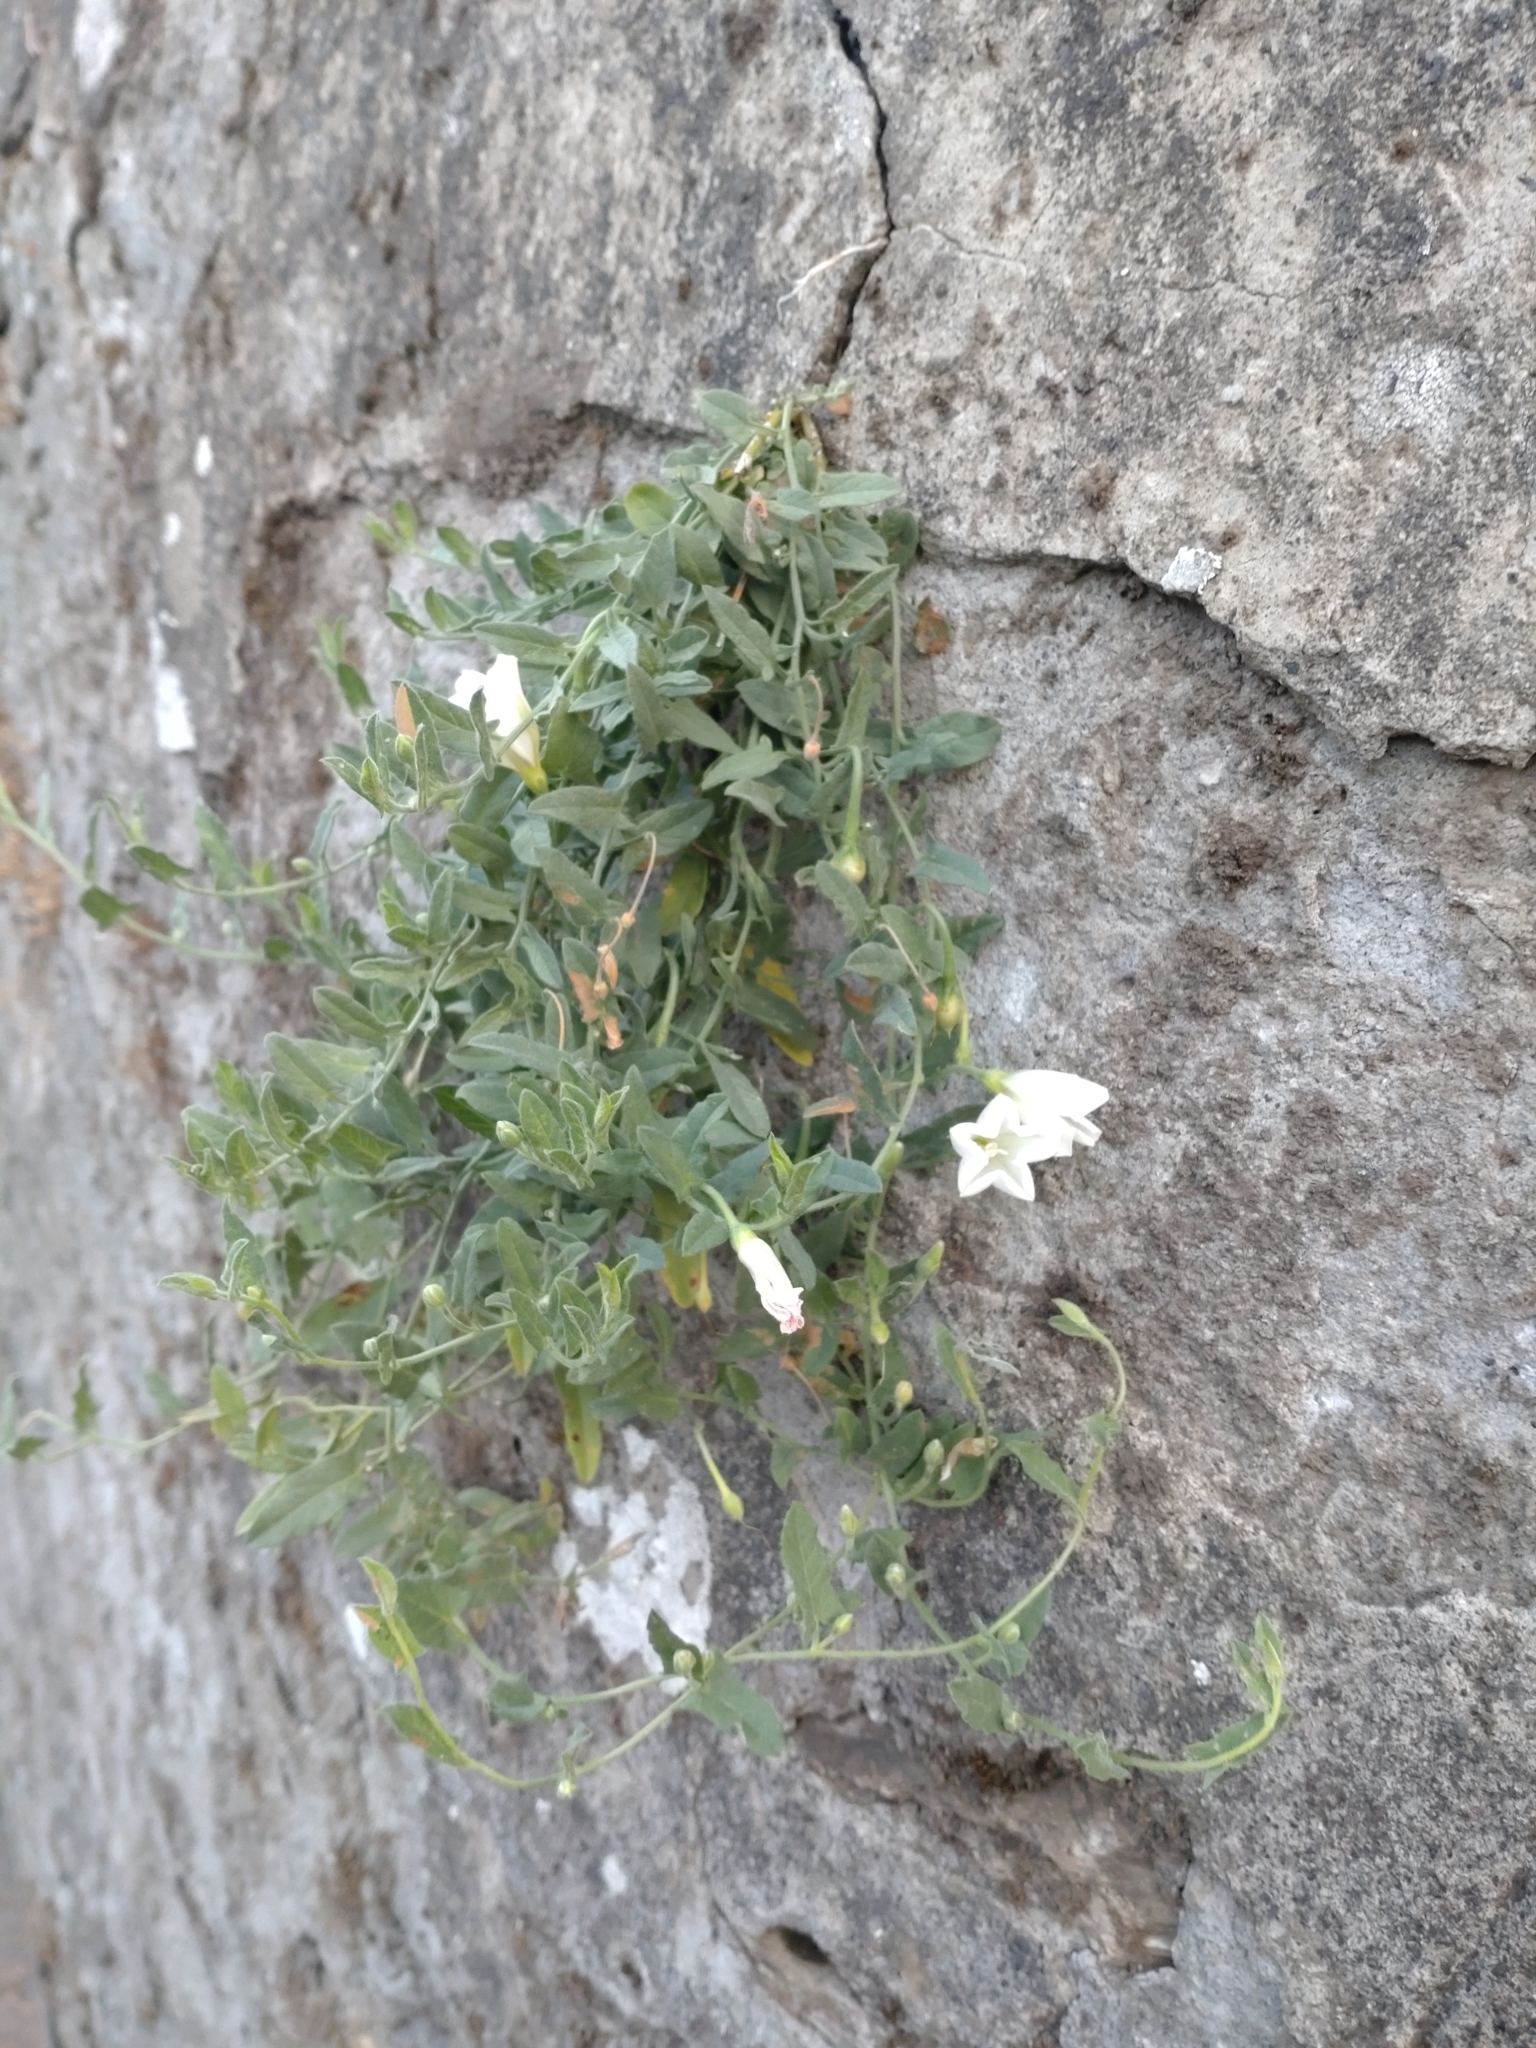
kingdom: Plantae
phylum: Tracheophyta
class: Magnoliopsida
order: Solanales
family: Convolvulaceae
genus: Convolvulus
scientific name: Convolvulus arvensis
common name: Field bindweed
